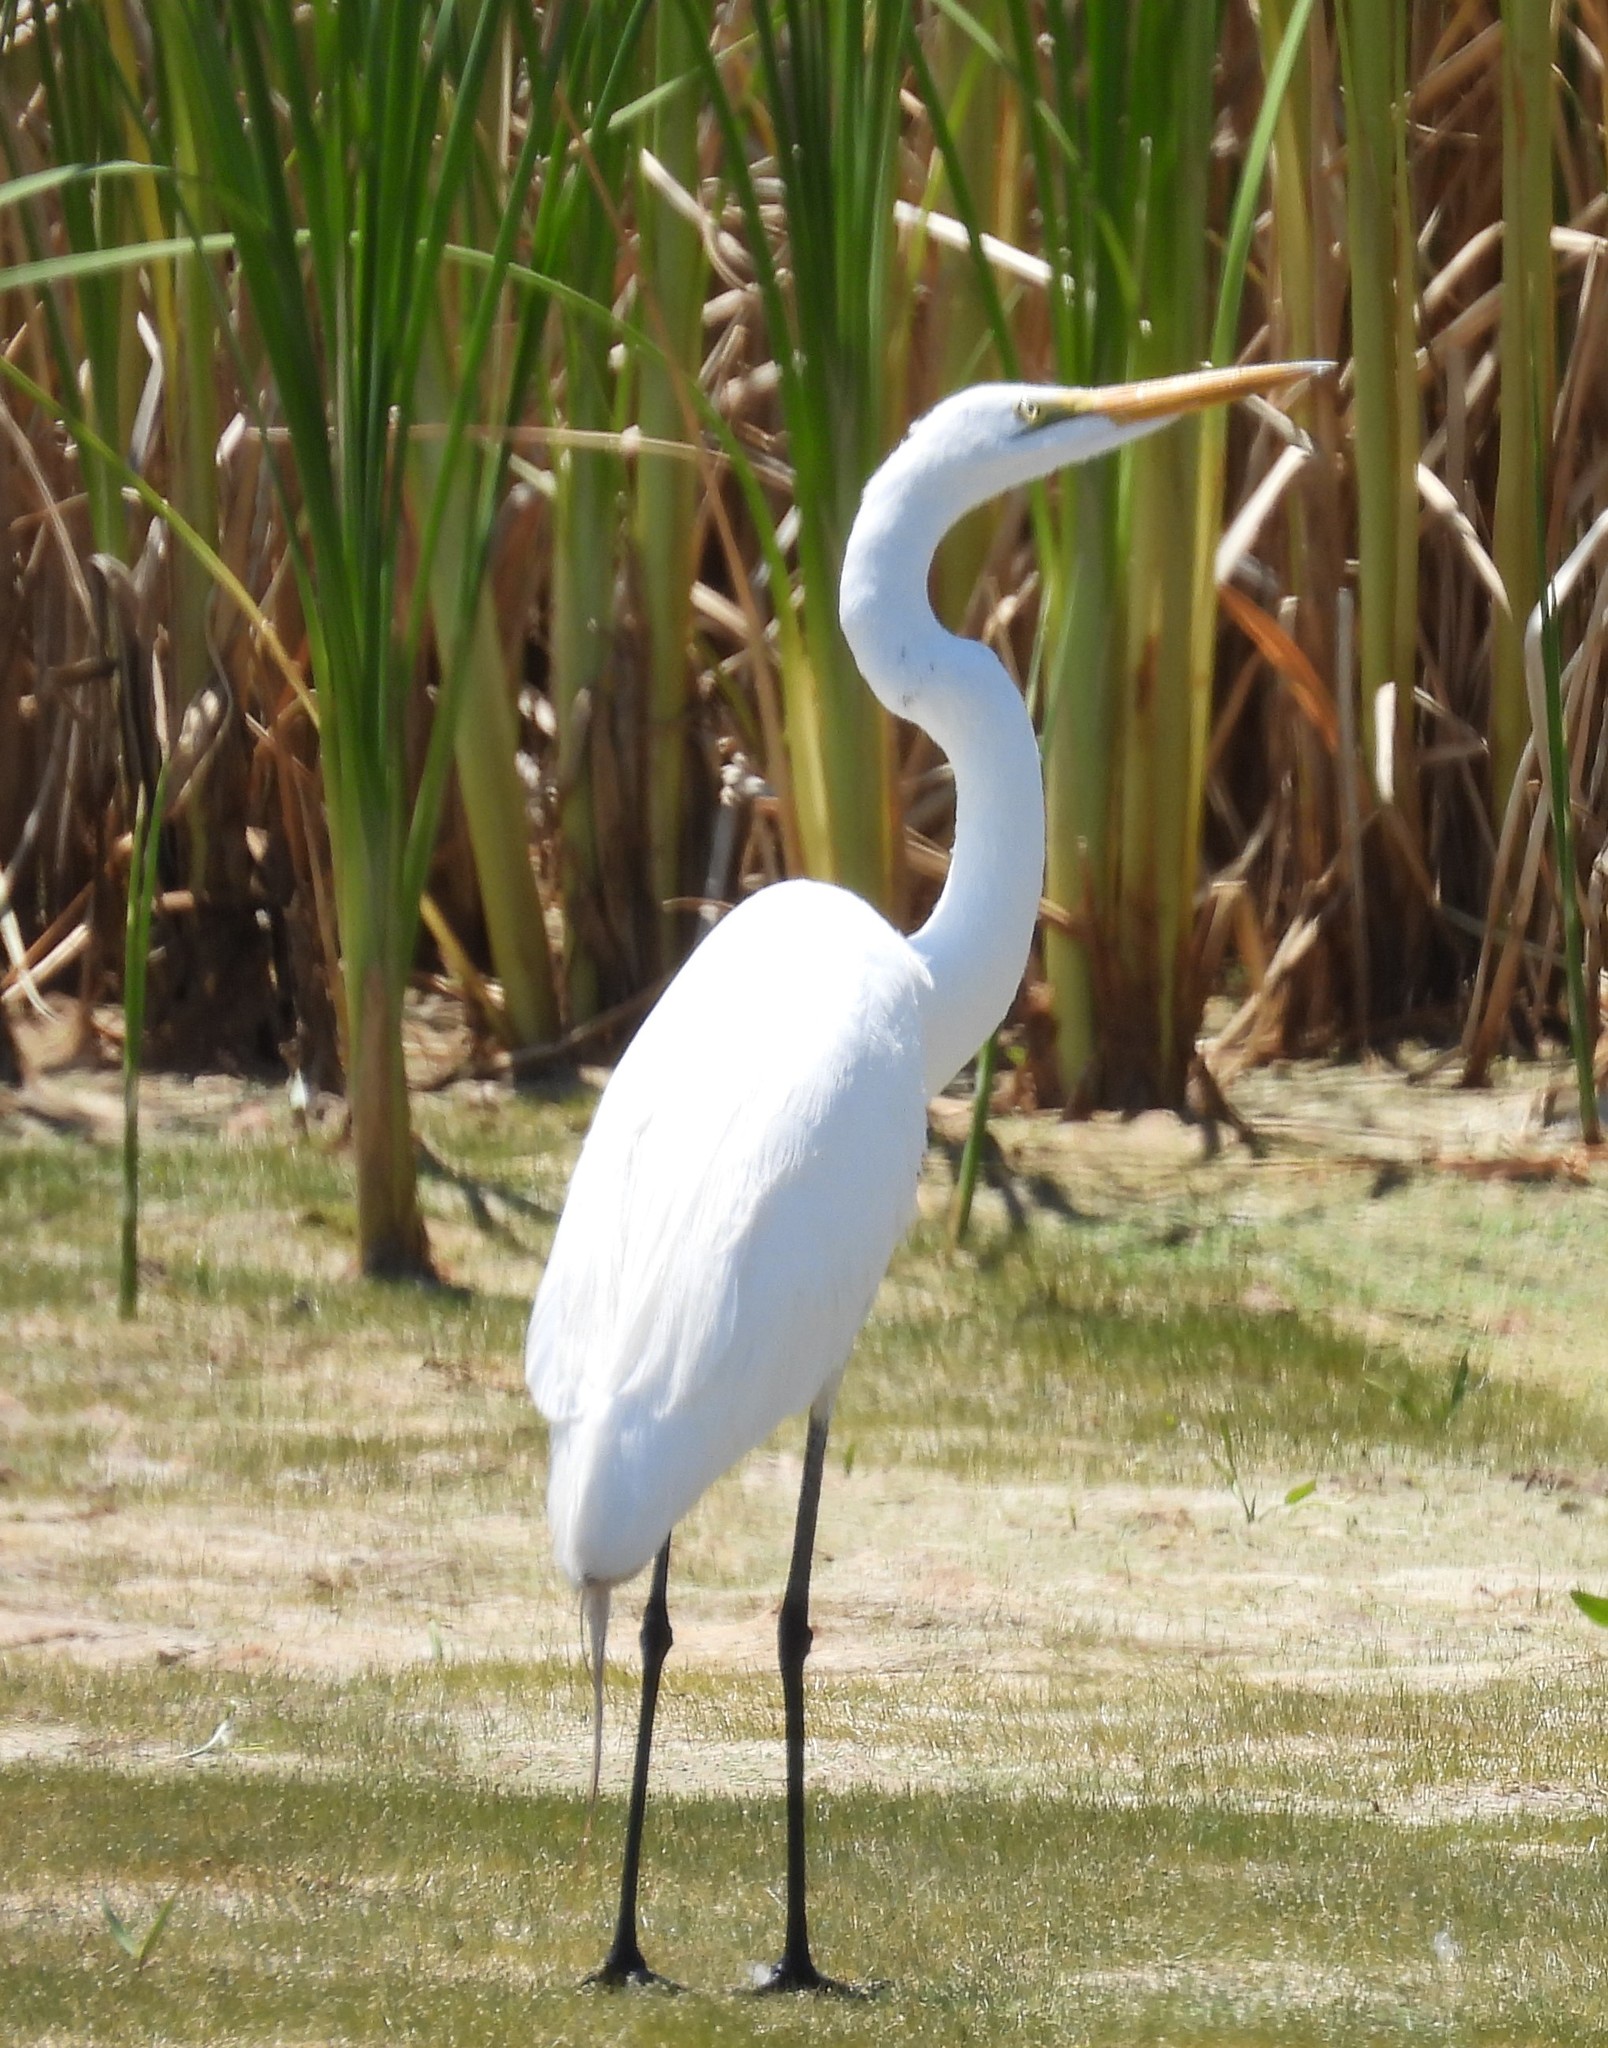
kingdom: Animalia
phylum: Chordata
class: Aves
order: Pelecaniformes
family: Ardeidae
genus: Ardea
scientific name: Ardea alba
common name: Great egret
